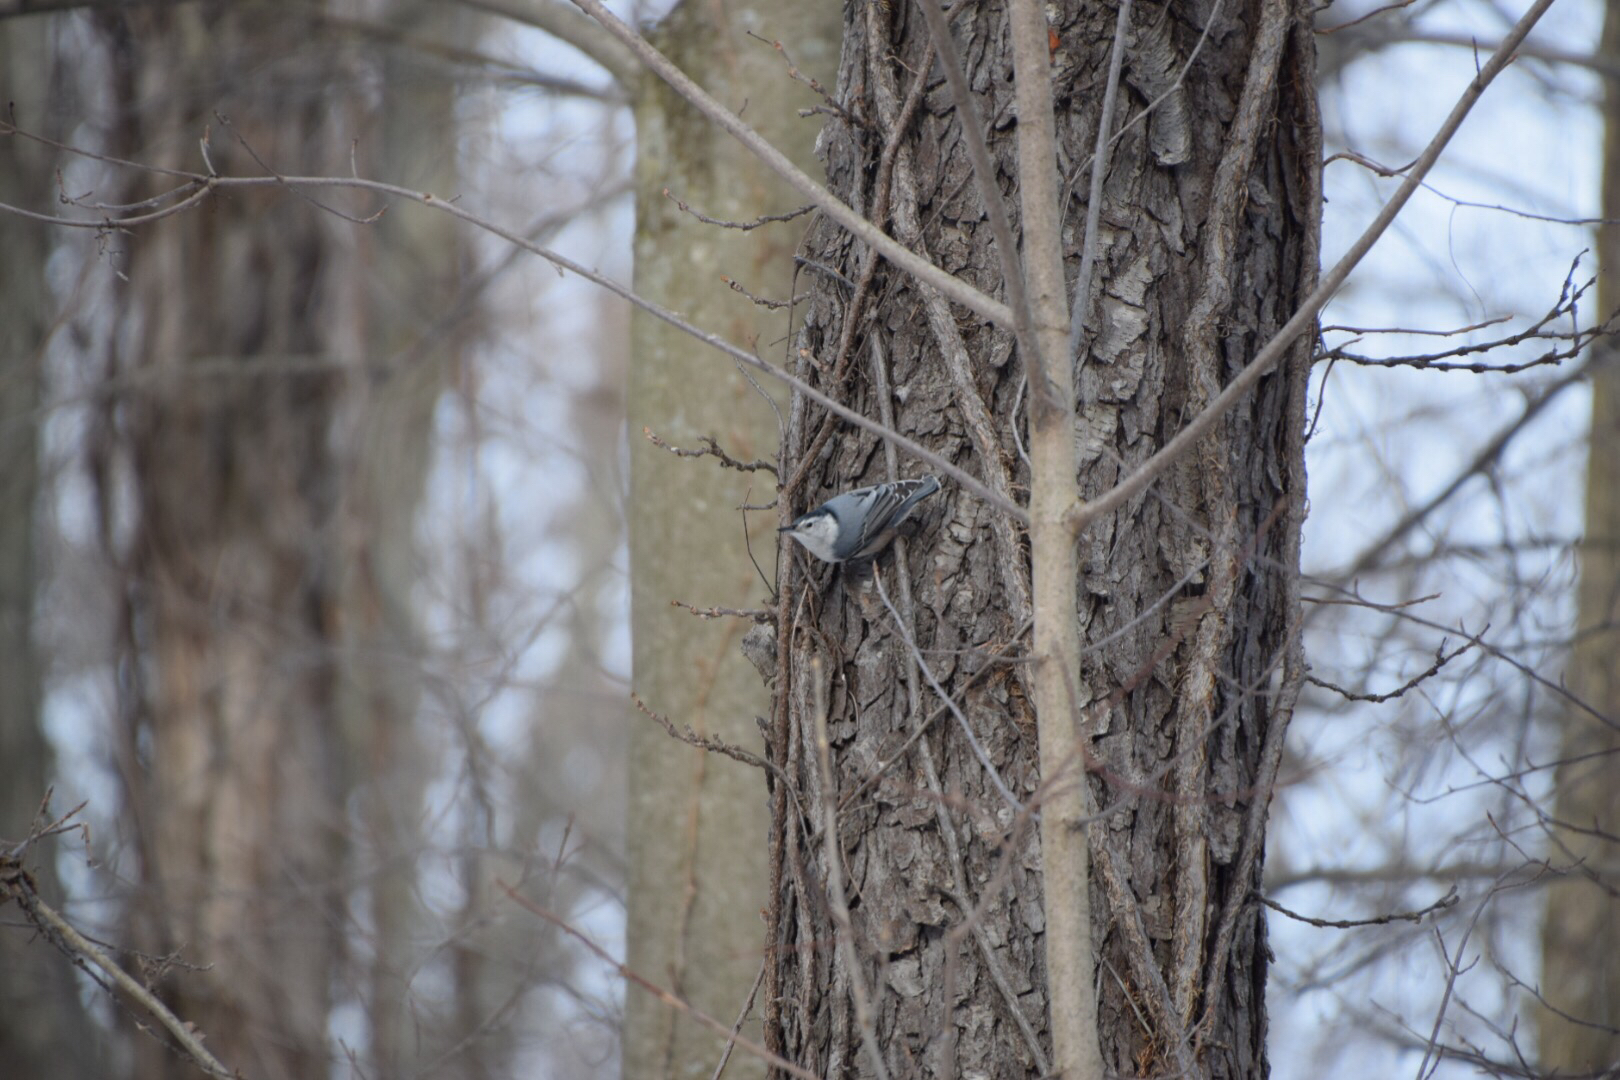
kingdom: Animalia
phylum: Chordata
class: Aves
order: Passeriformes
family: Sittidae
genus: Sitta
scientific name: Sitta carolinensis
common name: White-breasted nuthatch
